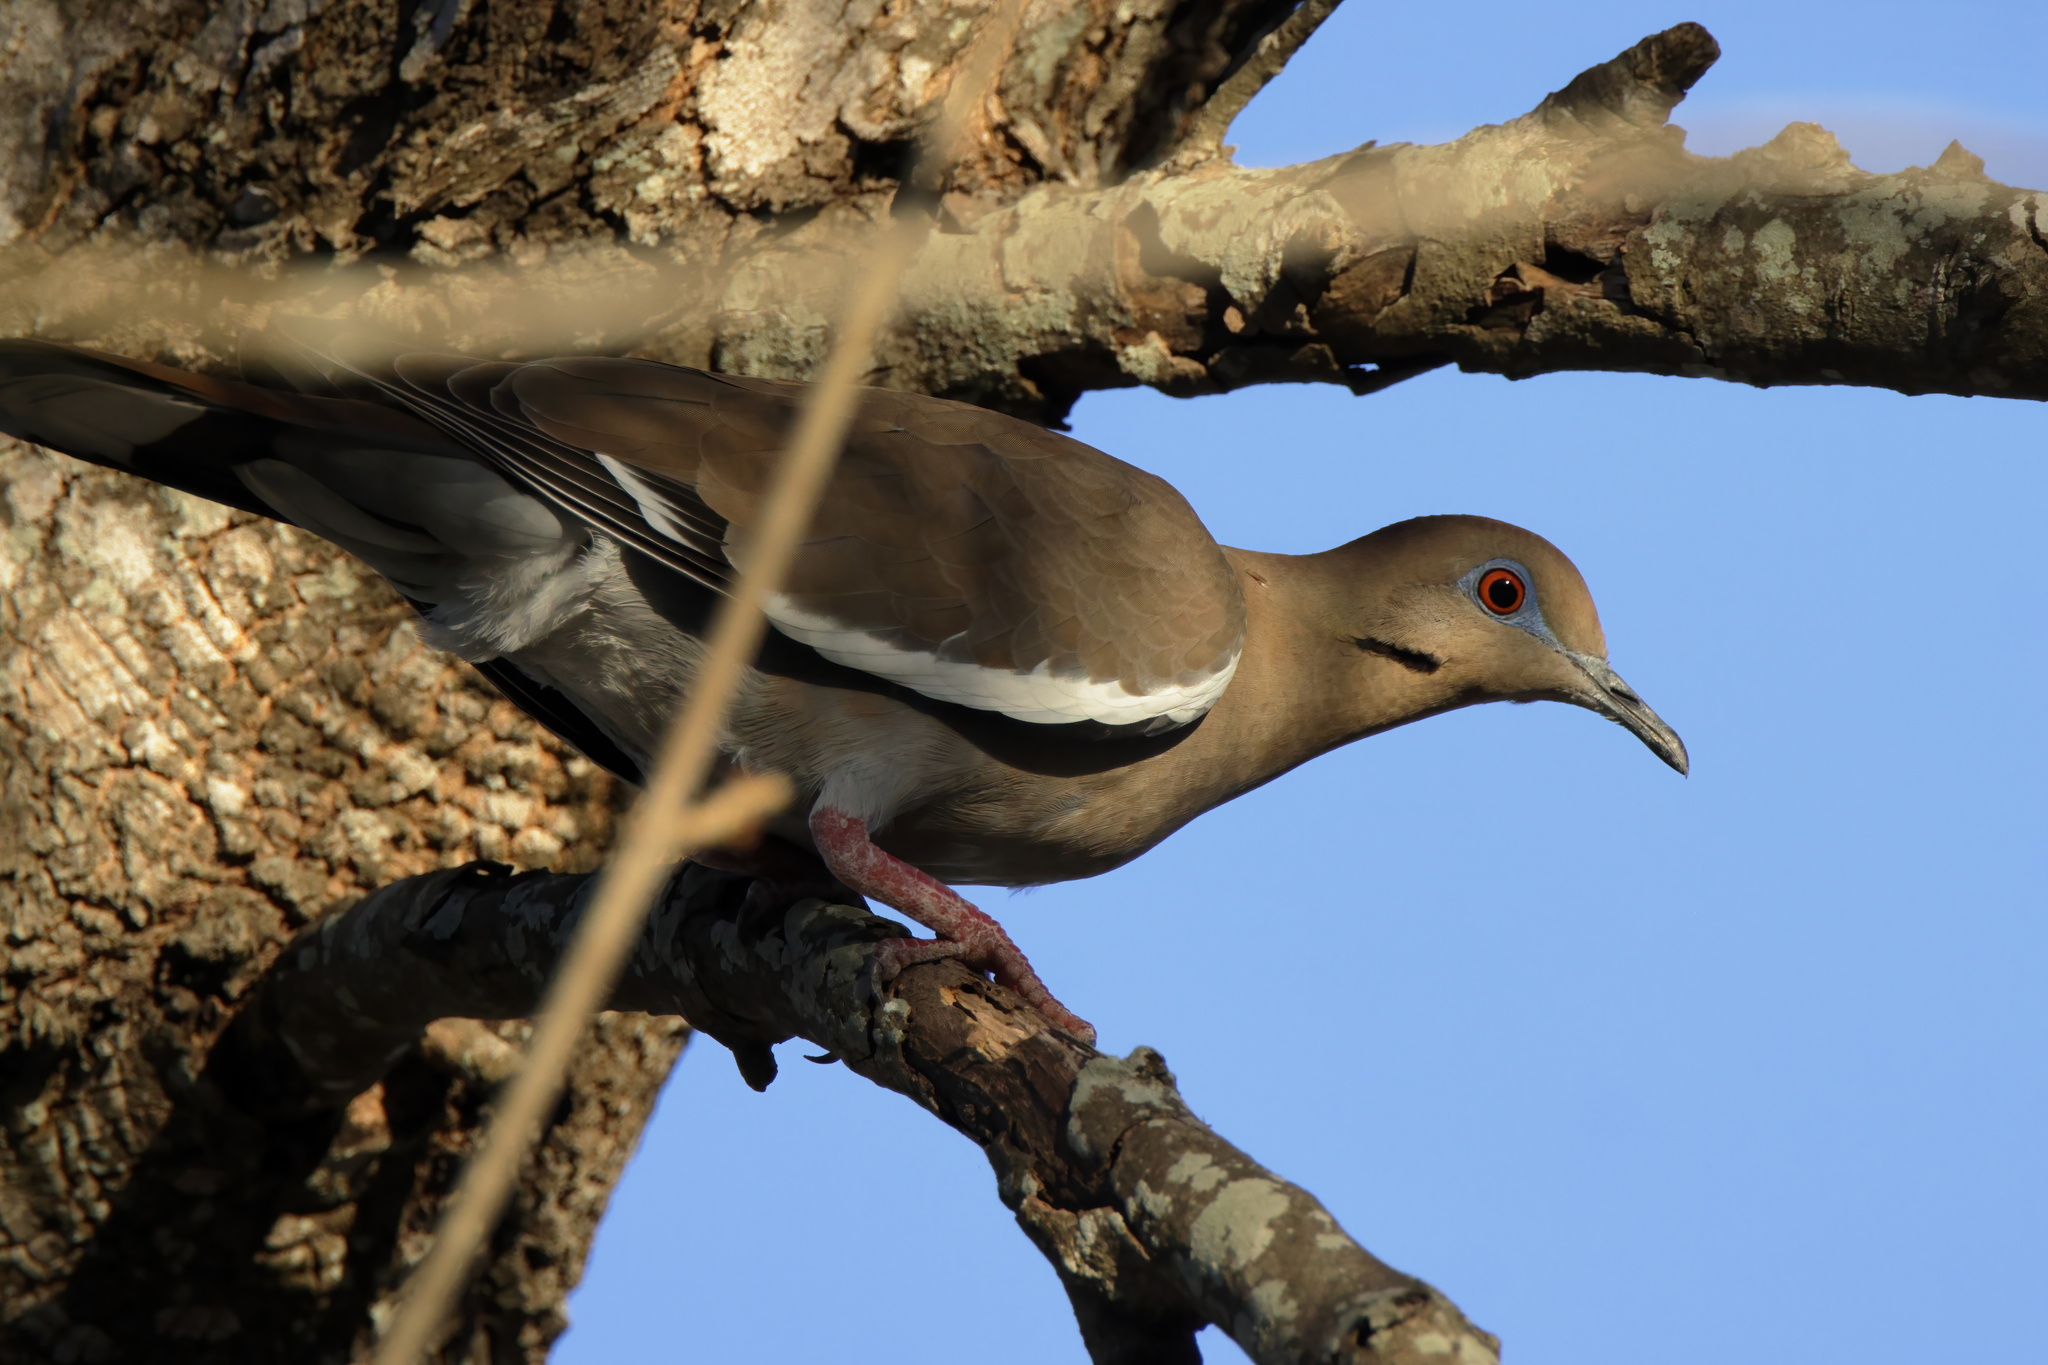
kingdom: Animalia
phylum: Chordata
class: Aves
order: Columbiformes
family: Columbidae
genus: Zenaida
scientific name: Zenaida asiatica
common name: White-winged dove
